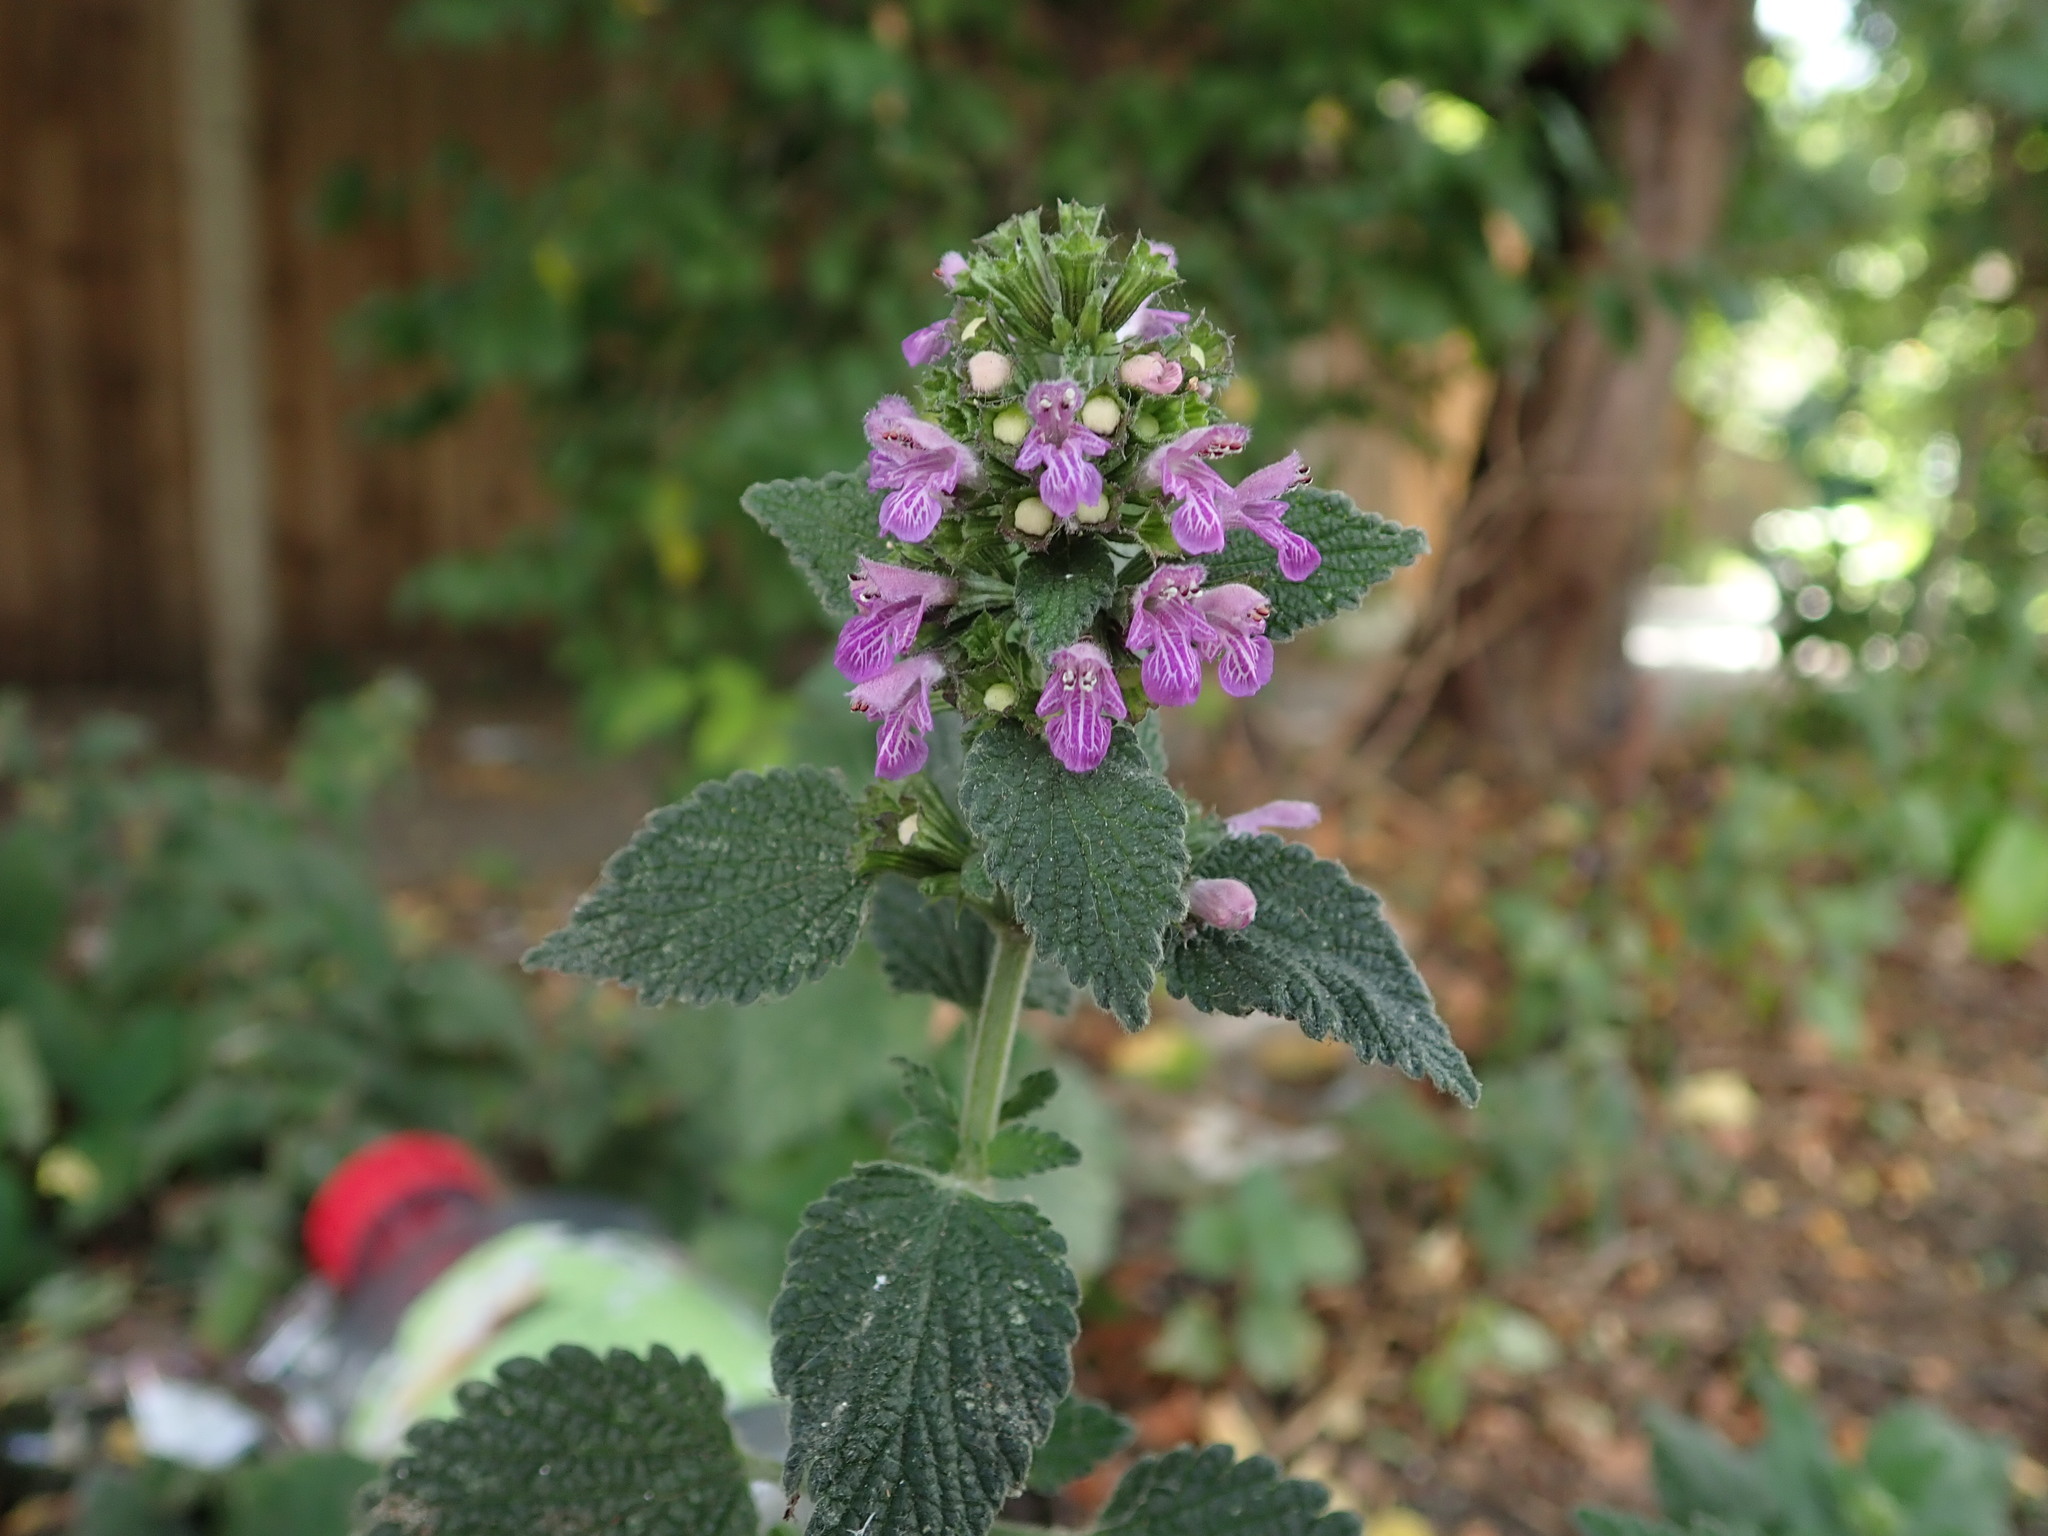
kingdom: Plantae
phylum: Tracheophyta
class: Magnoliopsida
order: Lamiales
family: Lamiaceae
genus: Ballota
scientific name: Ballota nigra
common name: Black horehound
